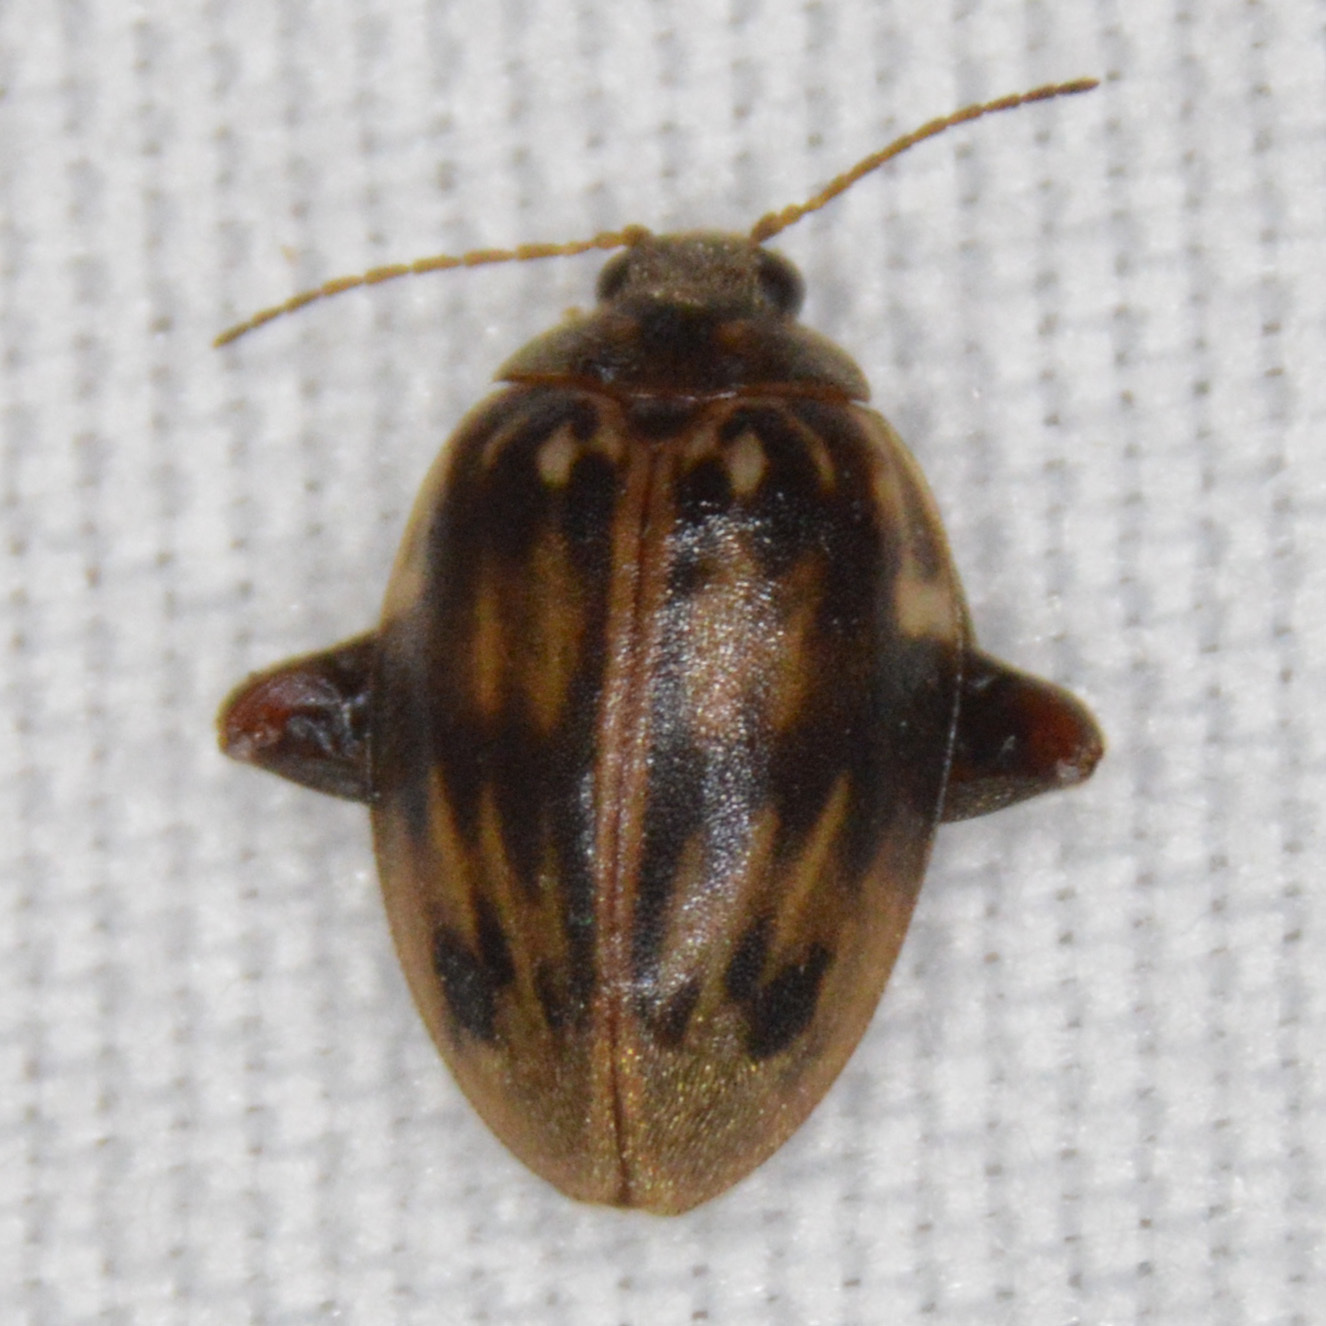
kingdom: Animalia
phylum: Arthropoda
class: Insecta
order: Coleoptera
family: Scirtidae
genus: Ora
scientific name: Ora texana
